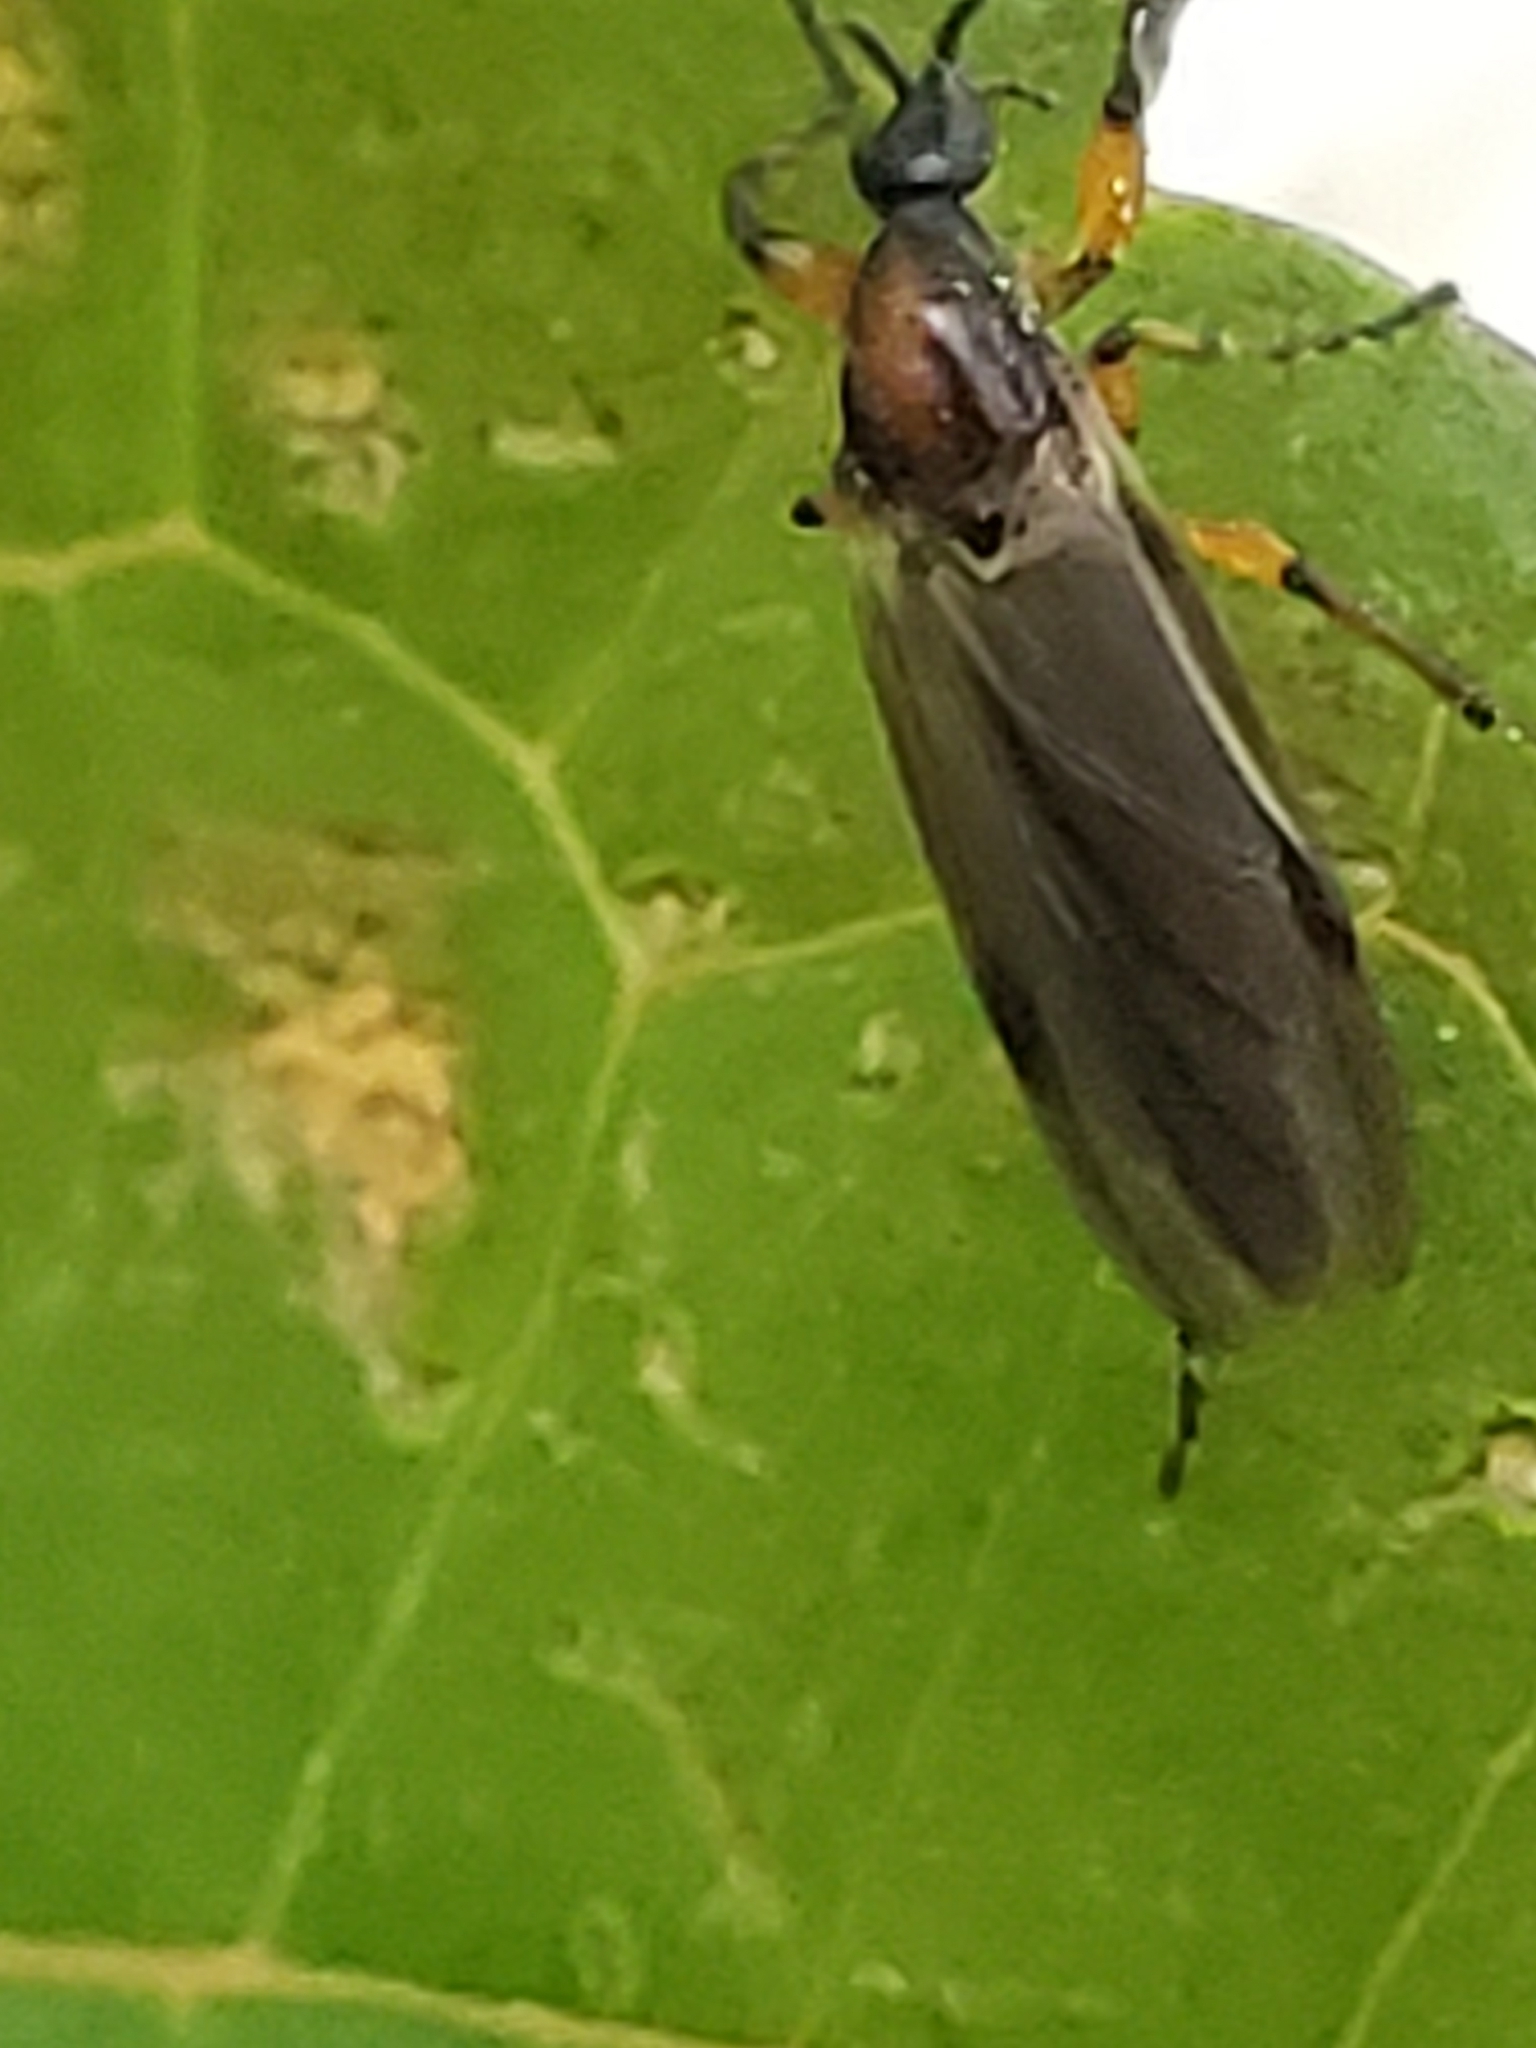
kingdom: Animalia
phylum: Arthropoda
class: Insecta
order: Diptera
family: Bibionidae
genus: Bibio
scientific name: Bibio articulatus
